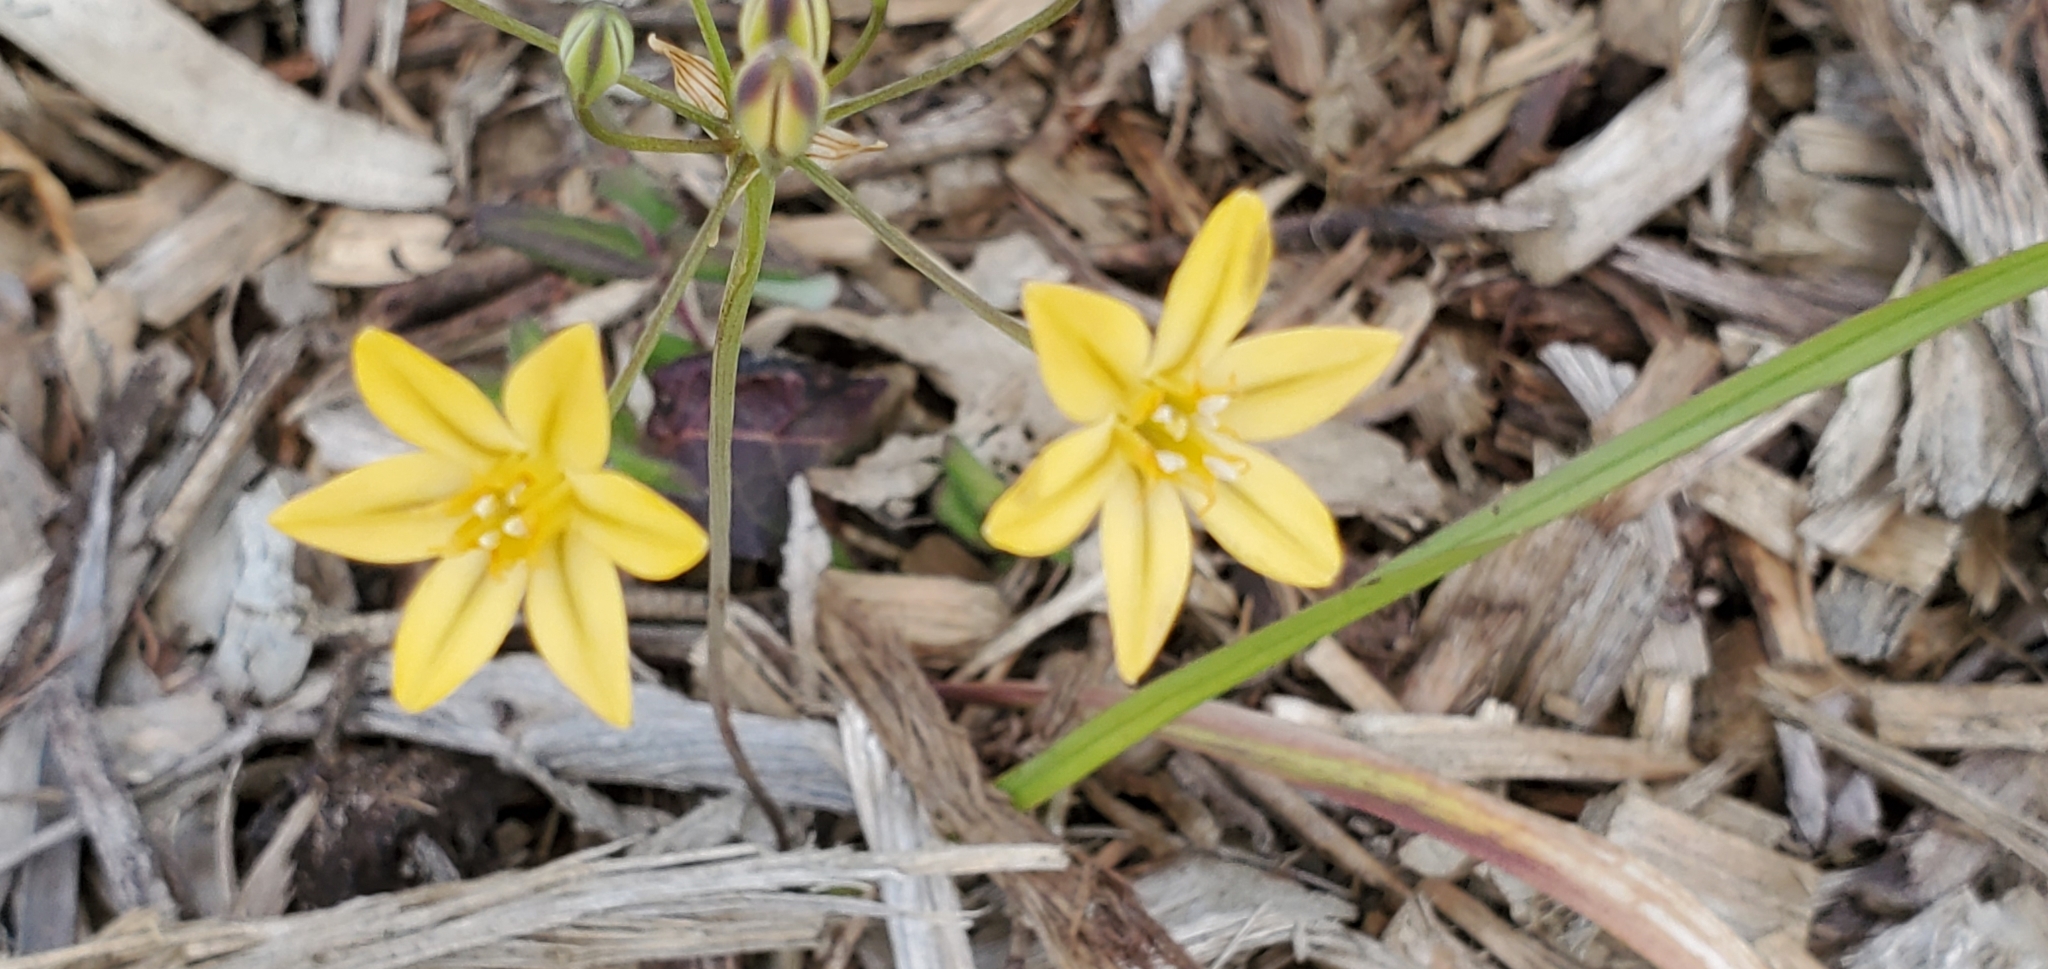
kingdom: Plantae
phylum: Tracheophyta
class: Liliopsida
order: Asparagales
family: Asparagaceae
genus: Triteleia
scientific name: Triteleia ixioides
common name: Yellow-brodiaea
